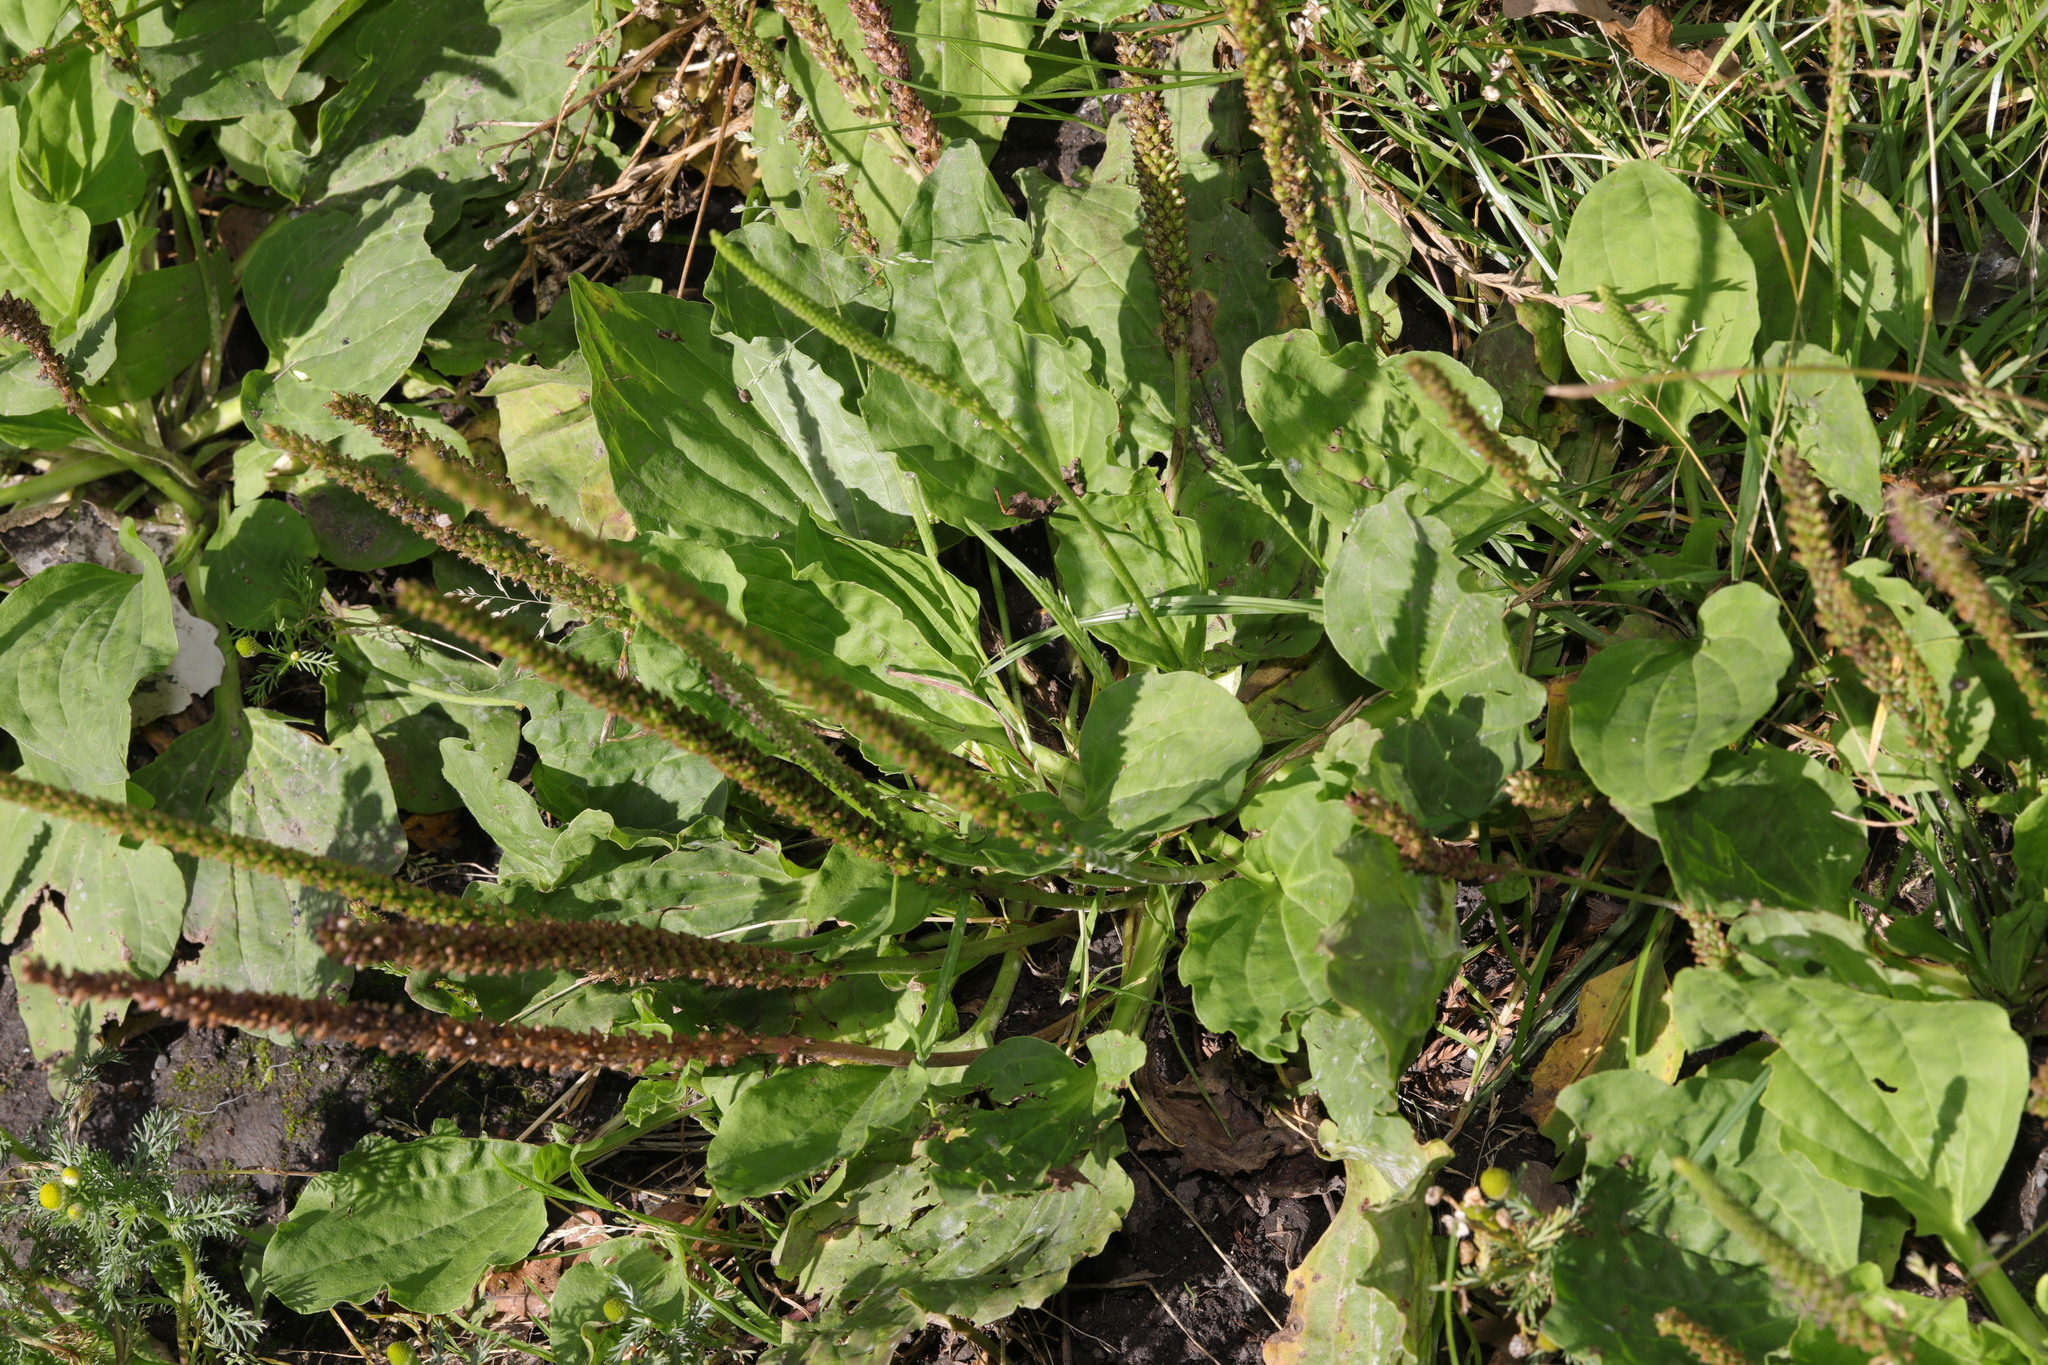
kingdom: Plantae
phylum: Tracheophyta
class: Magnoliopsida
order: Lamiales
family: Plantaginaceae
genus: Plantago
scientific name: Plantago major
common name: Common plantain
